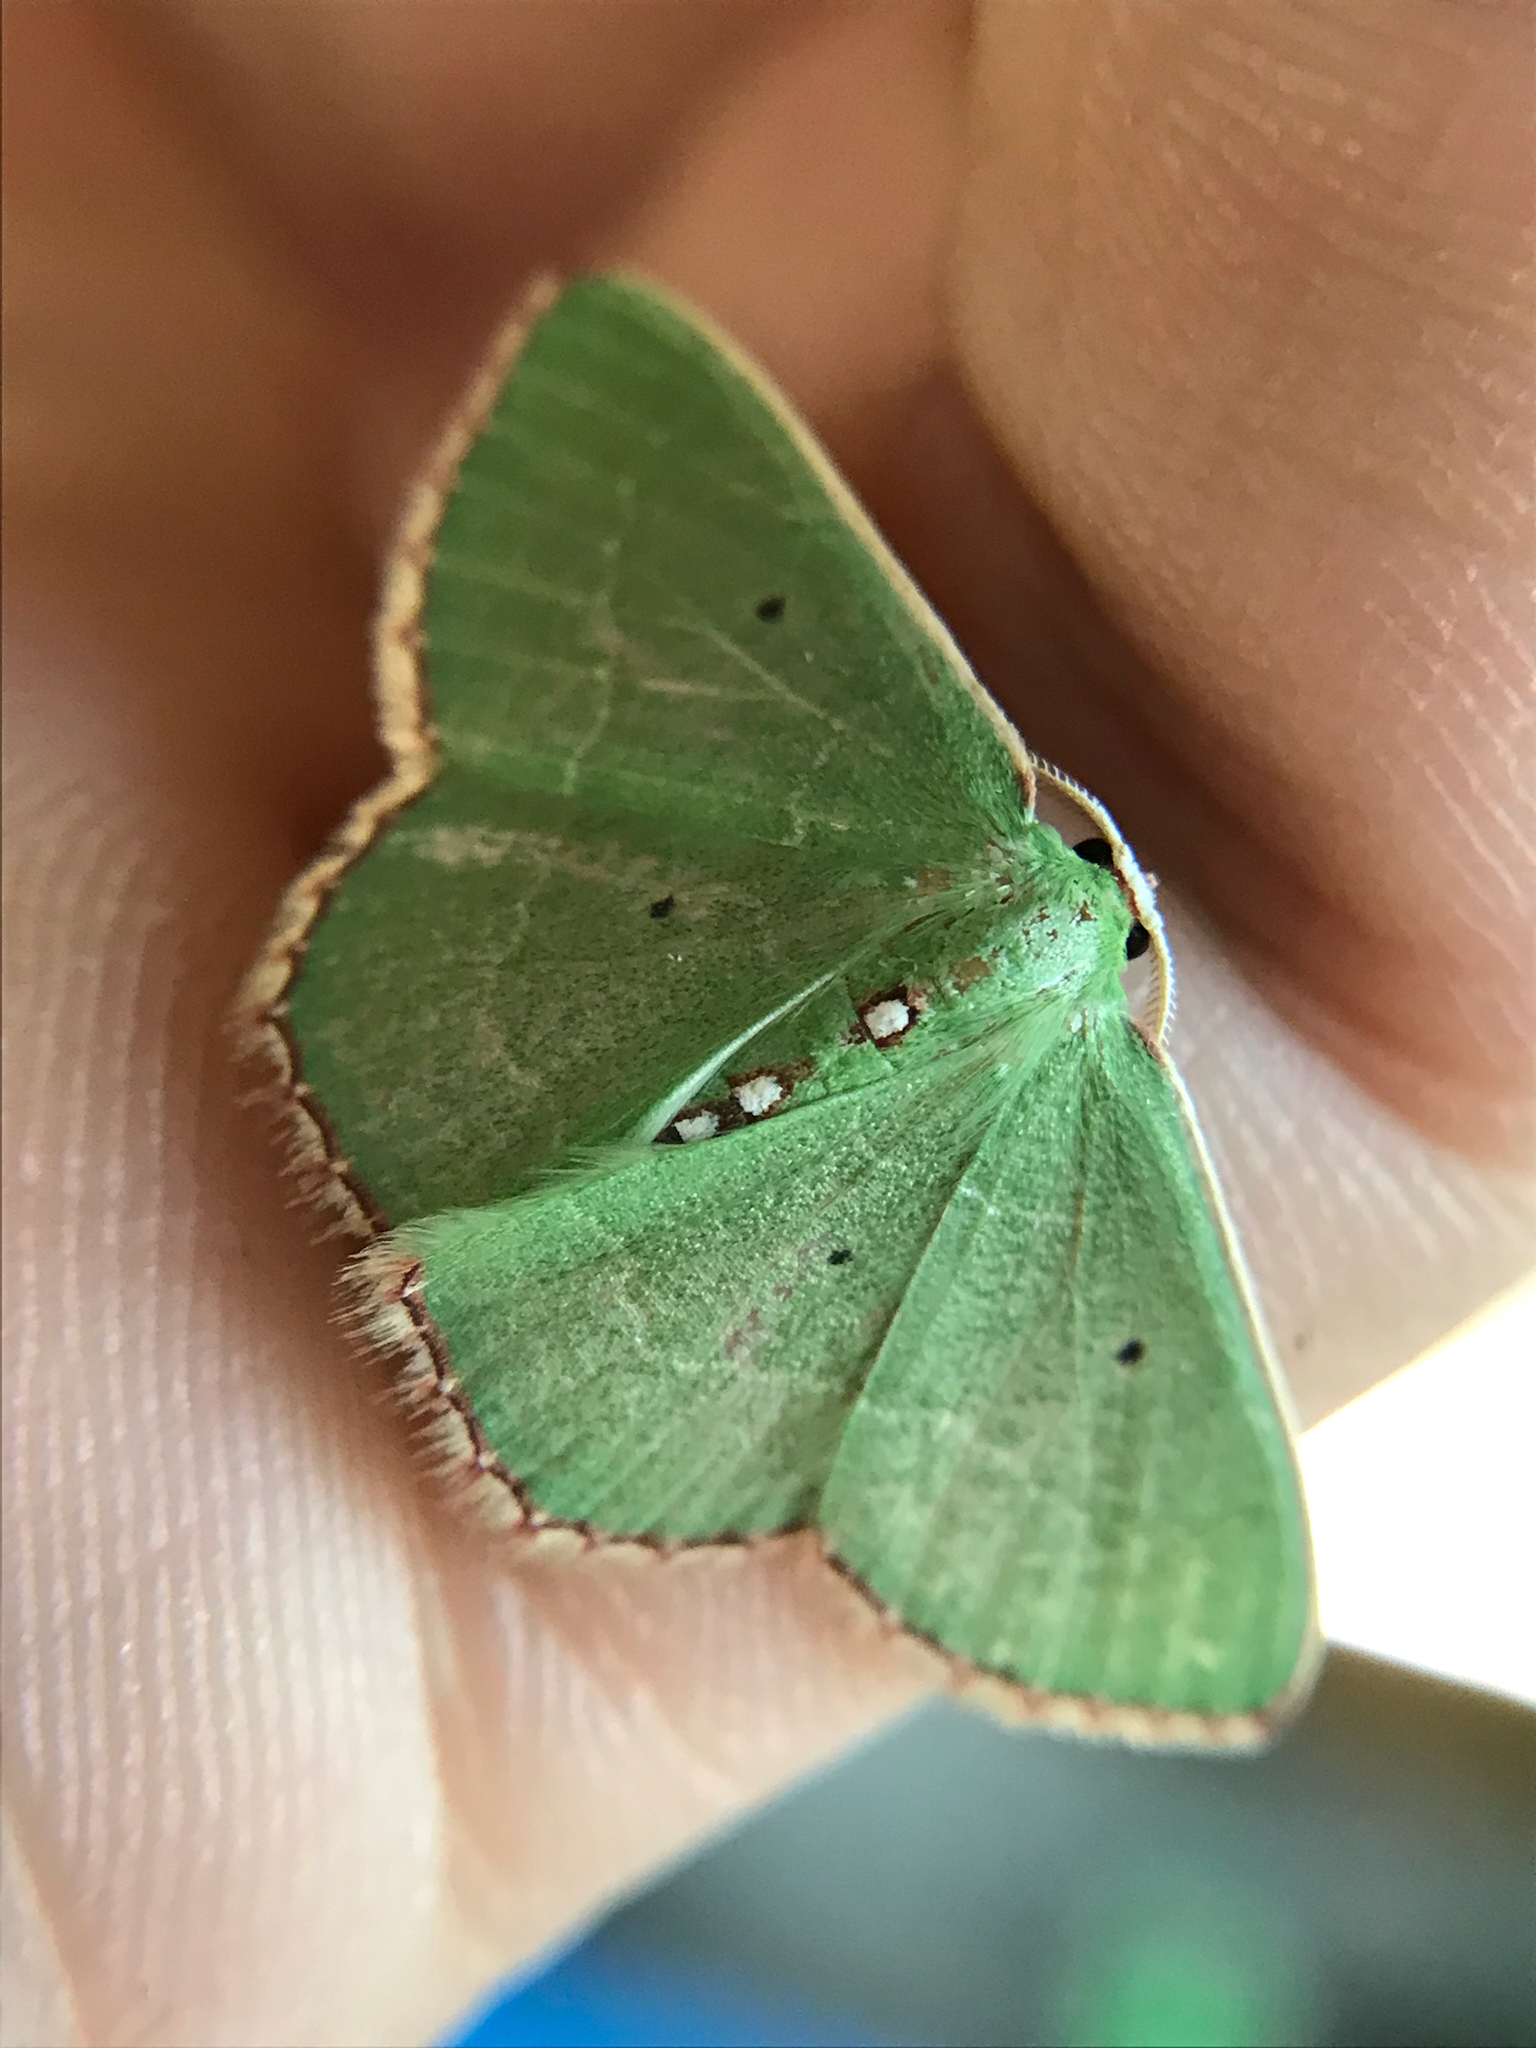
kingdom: Animalia
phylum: Arthropoda
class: Insecta
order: Lepidoptera
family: Geometridae
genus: Nemoria
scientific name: Nemoria lixaria
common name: Red-bordered emerald
